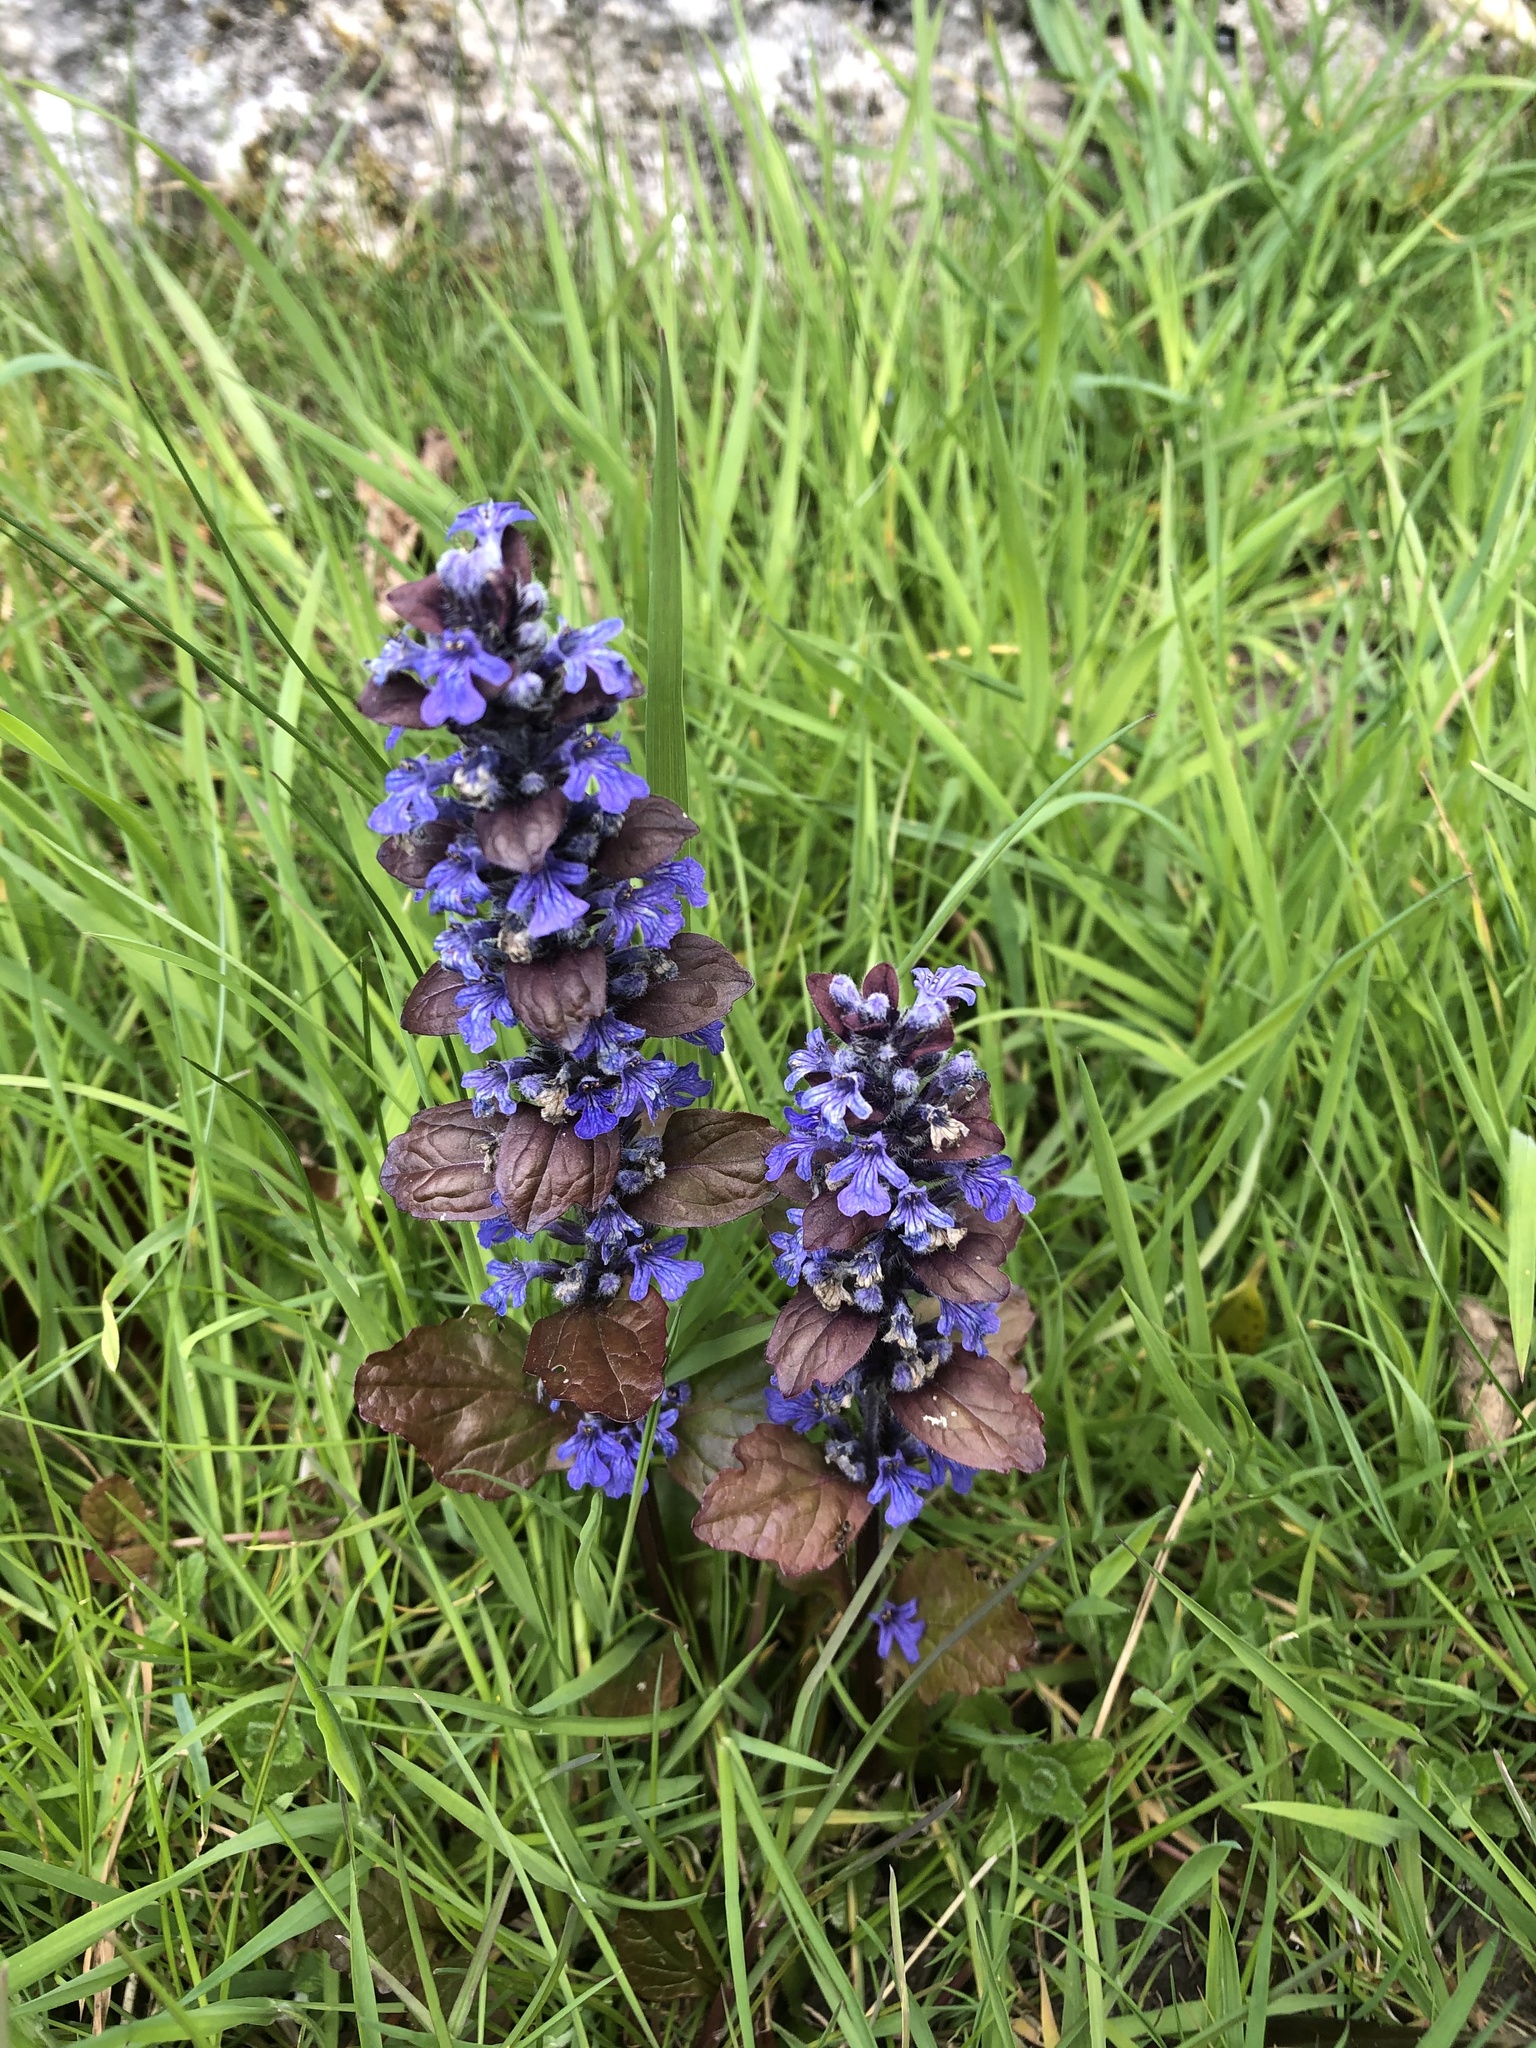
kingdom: Plantae
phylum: Tracheophyta
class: Magnoliopsida
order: Lamiales
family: Lamiaceae
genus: Ajuga
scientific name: Ajuga reptans
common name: Bugle
